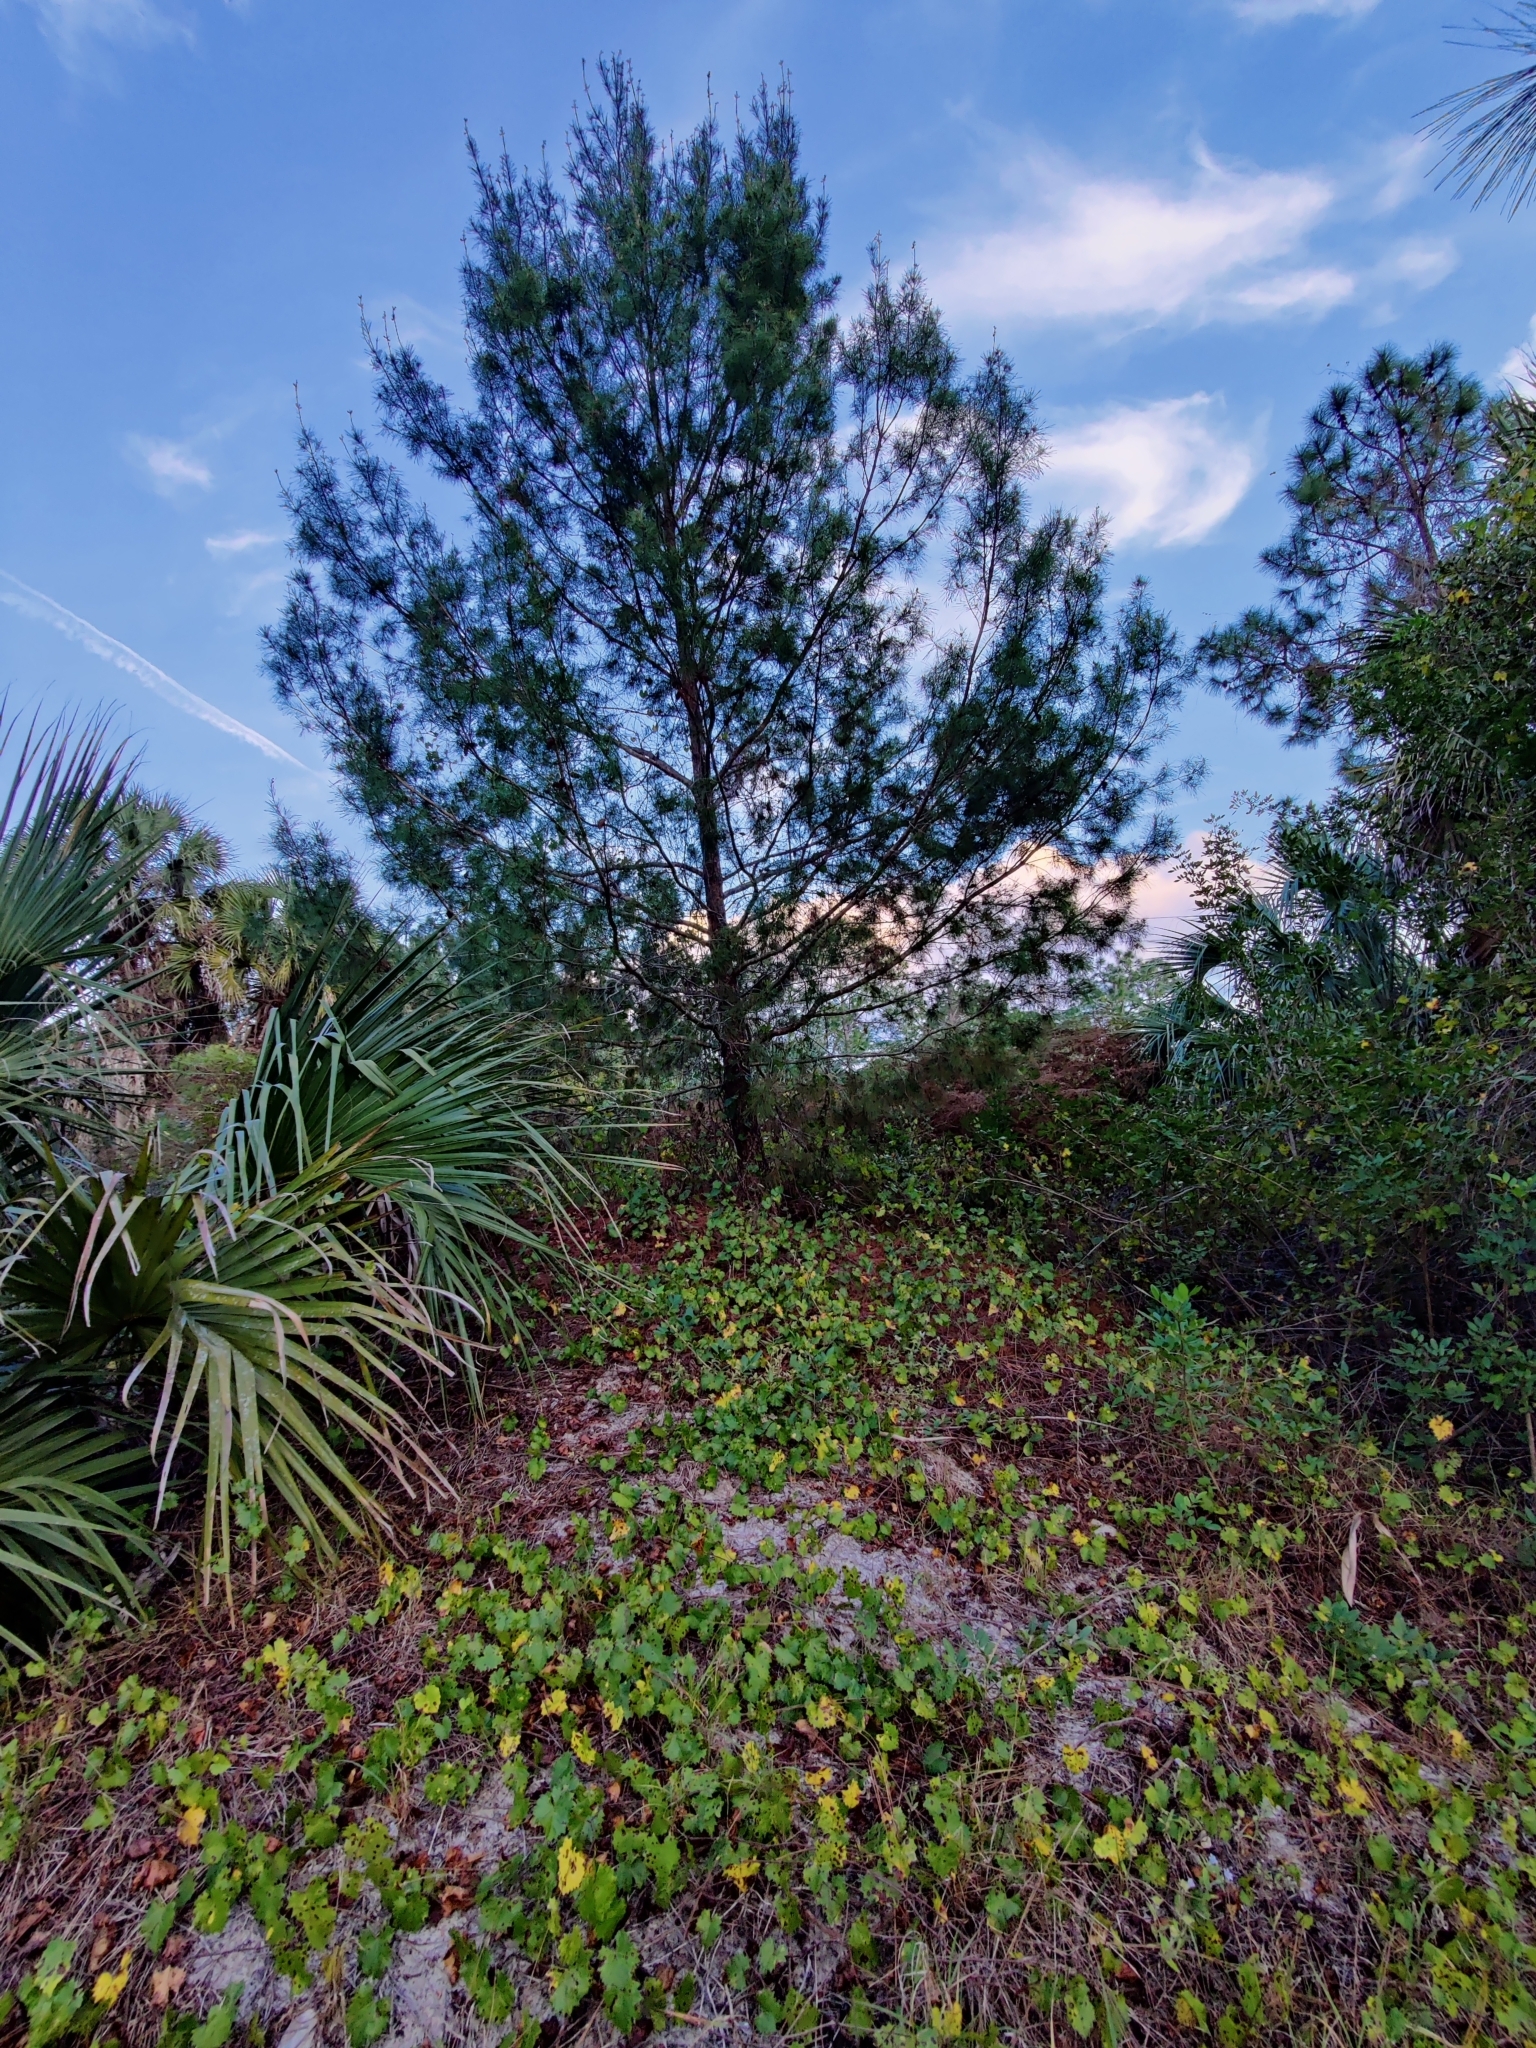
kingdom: Plantae
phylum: Tracheophyta
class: Pinopsida
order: Pinales
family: Pinaceae
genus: Pinus
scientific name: Pinus clausa
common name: Sand pine
